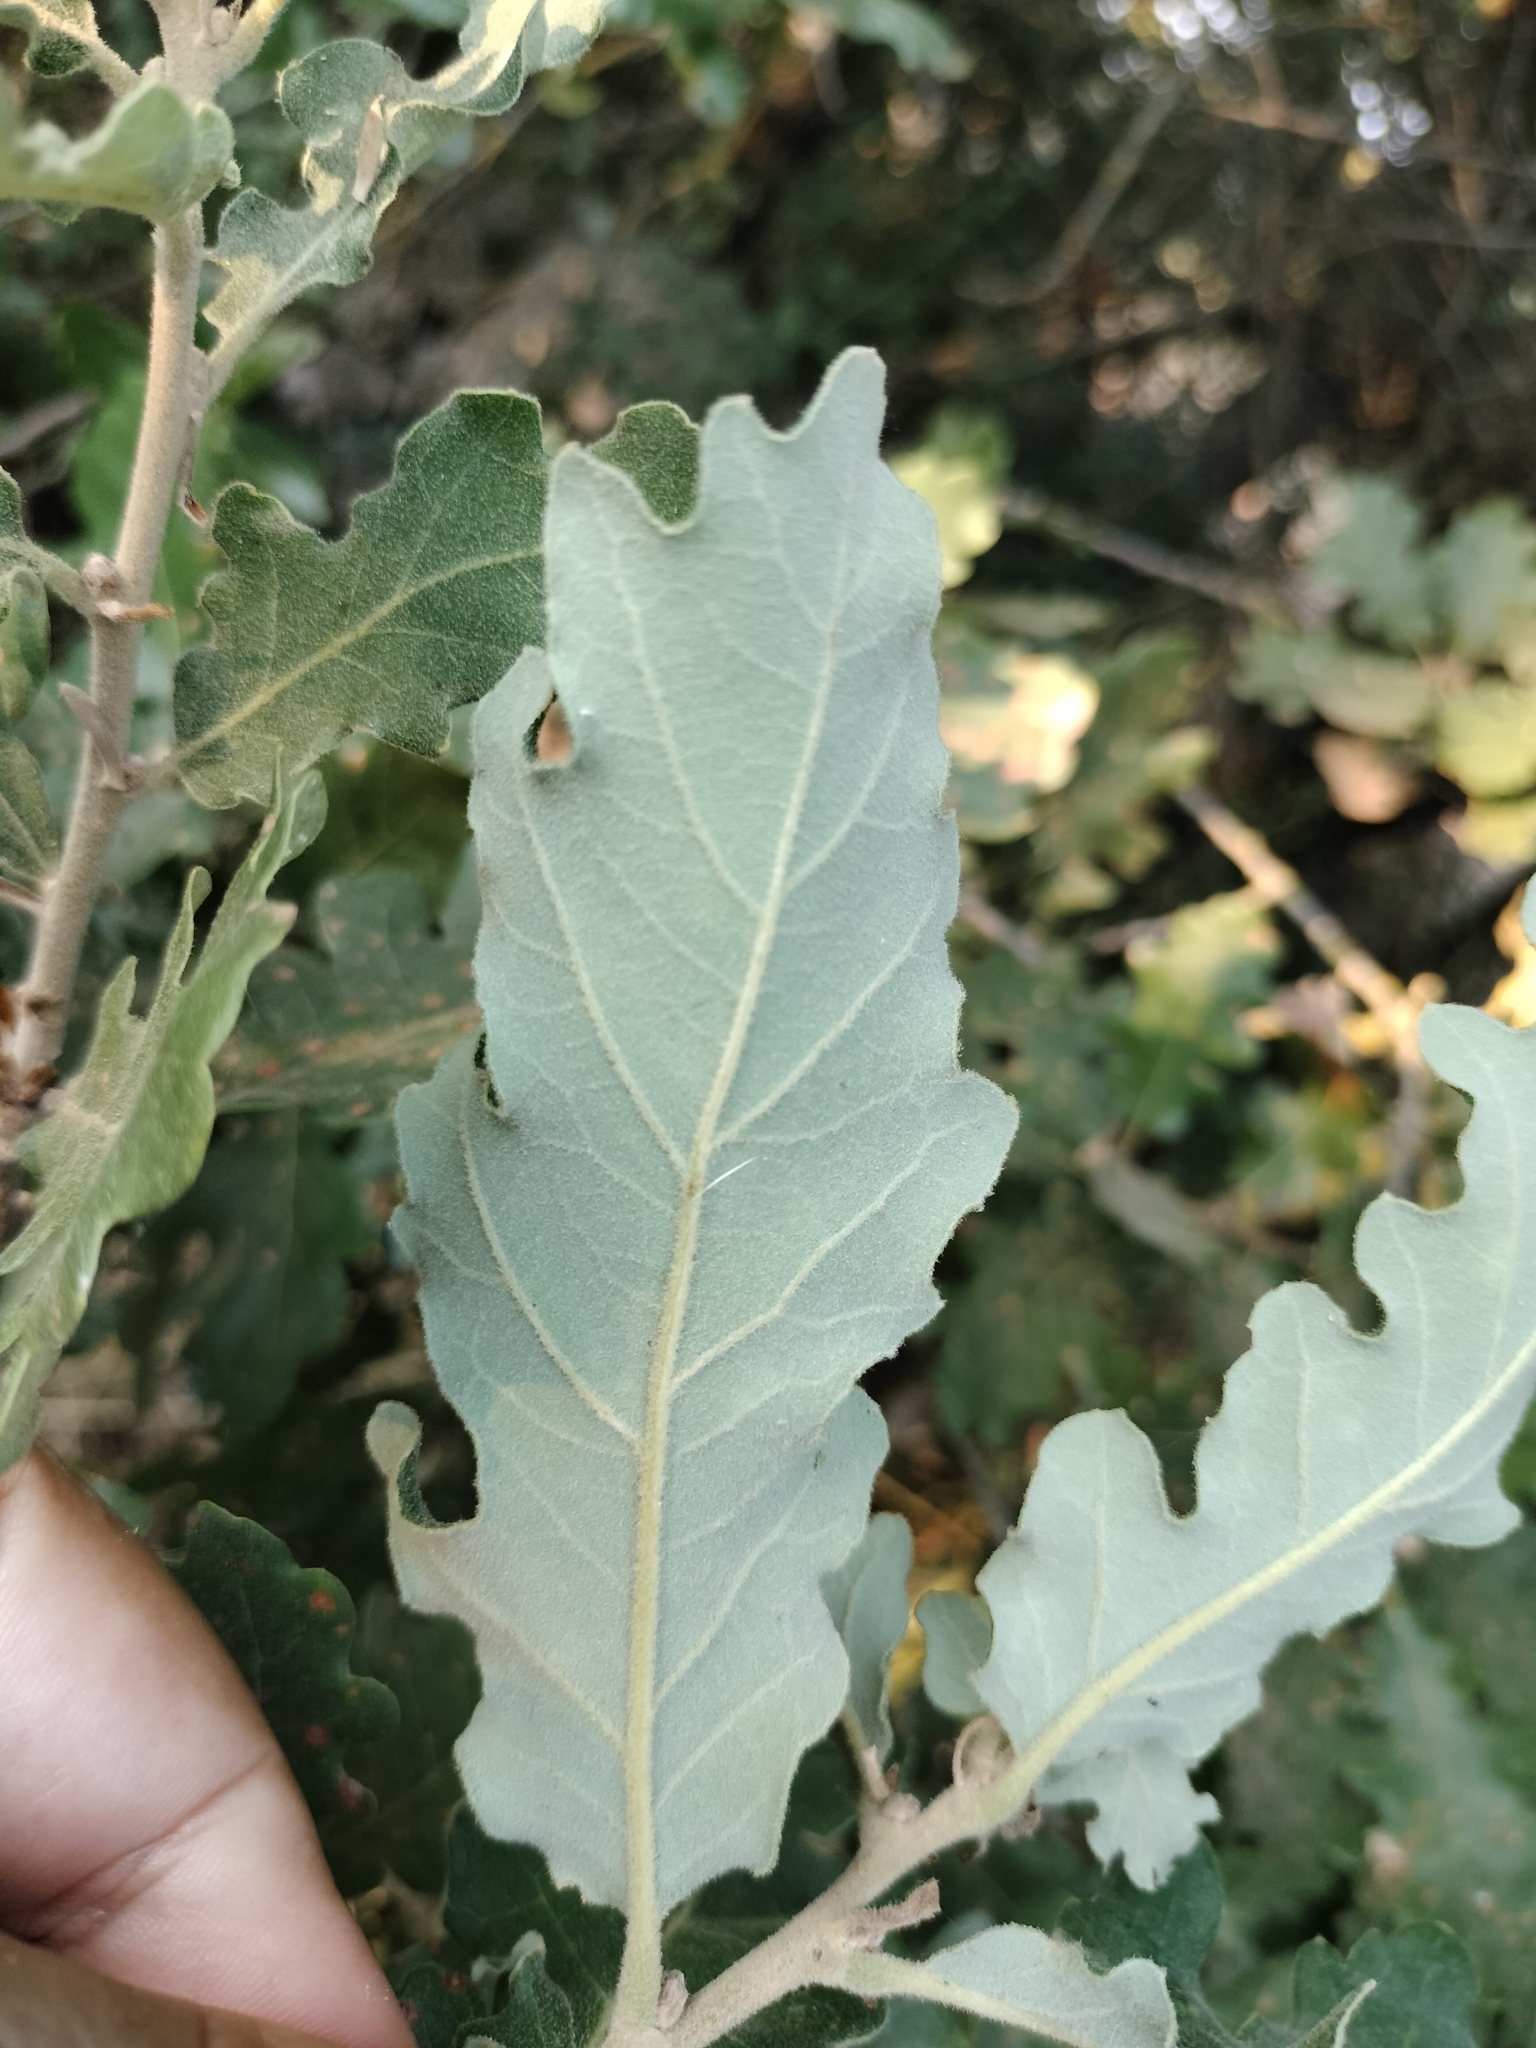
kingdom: Plantae
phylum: Tracheophyta
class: Magnoliopsida
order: Fagales
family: Fagaceae
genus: Quercus
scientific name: Quercus pubescens
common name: Downy oak
